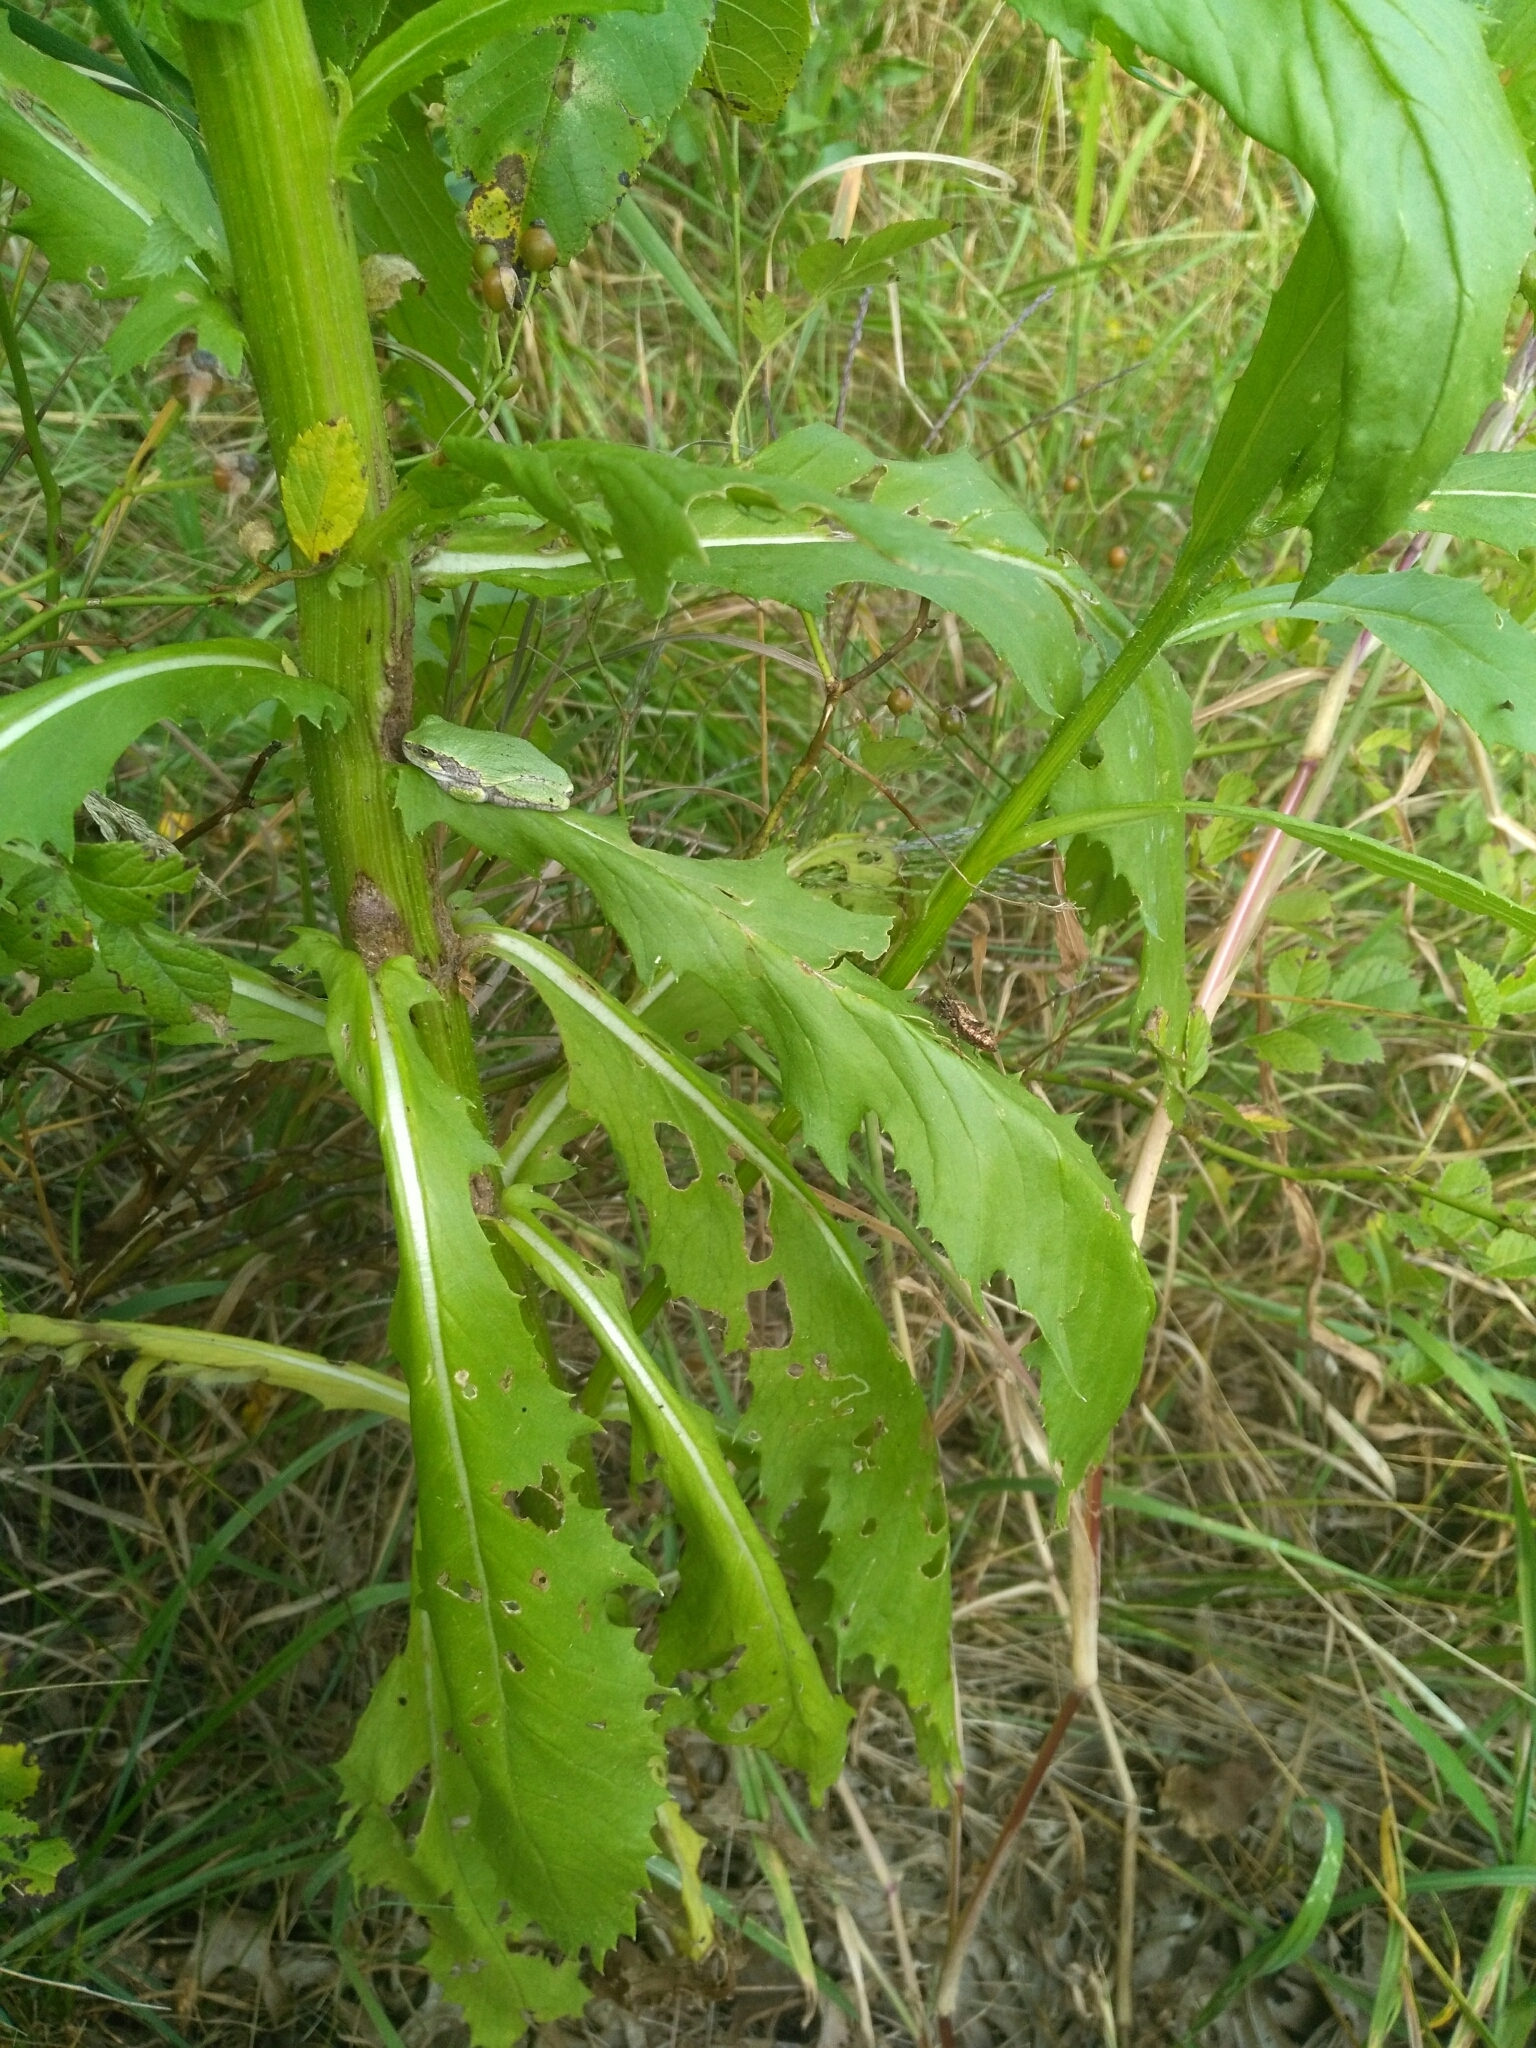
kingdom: Animalia
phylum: Chordata
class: Amphibia
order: Anura
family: Hylidae
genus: Dryophytes
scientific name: Dryophytes versicolor
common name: Gray treefrog
